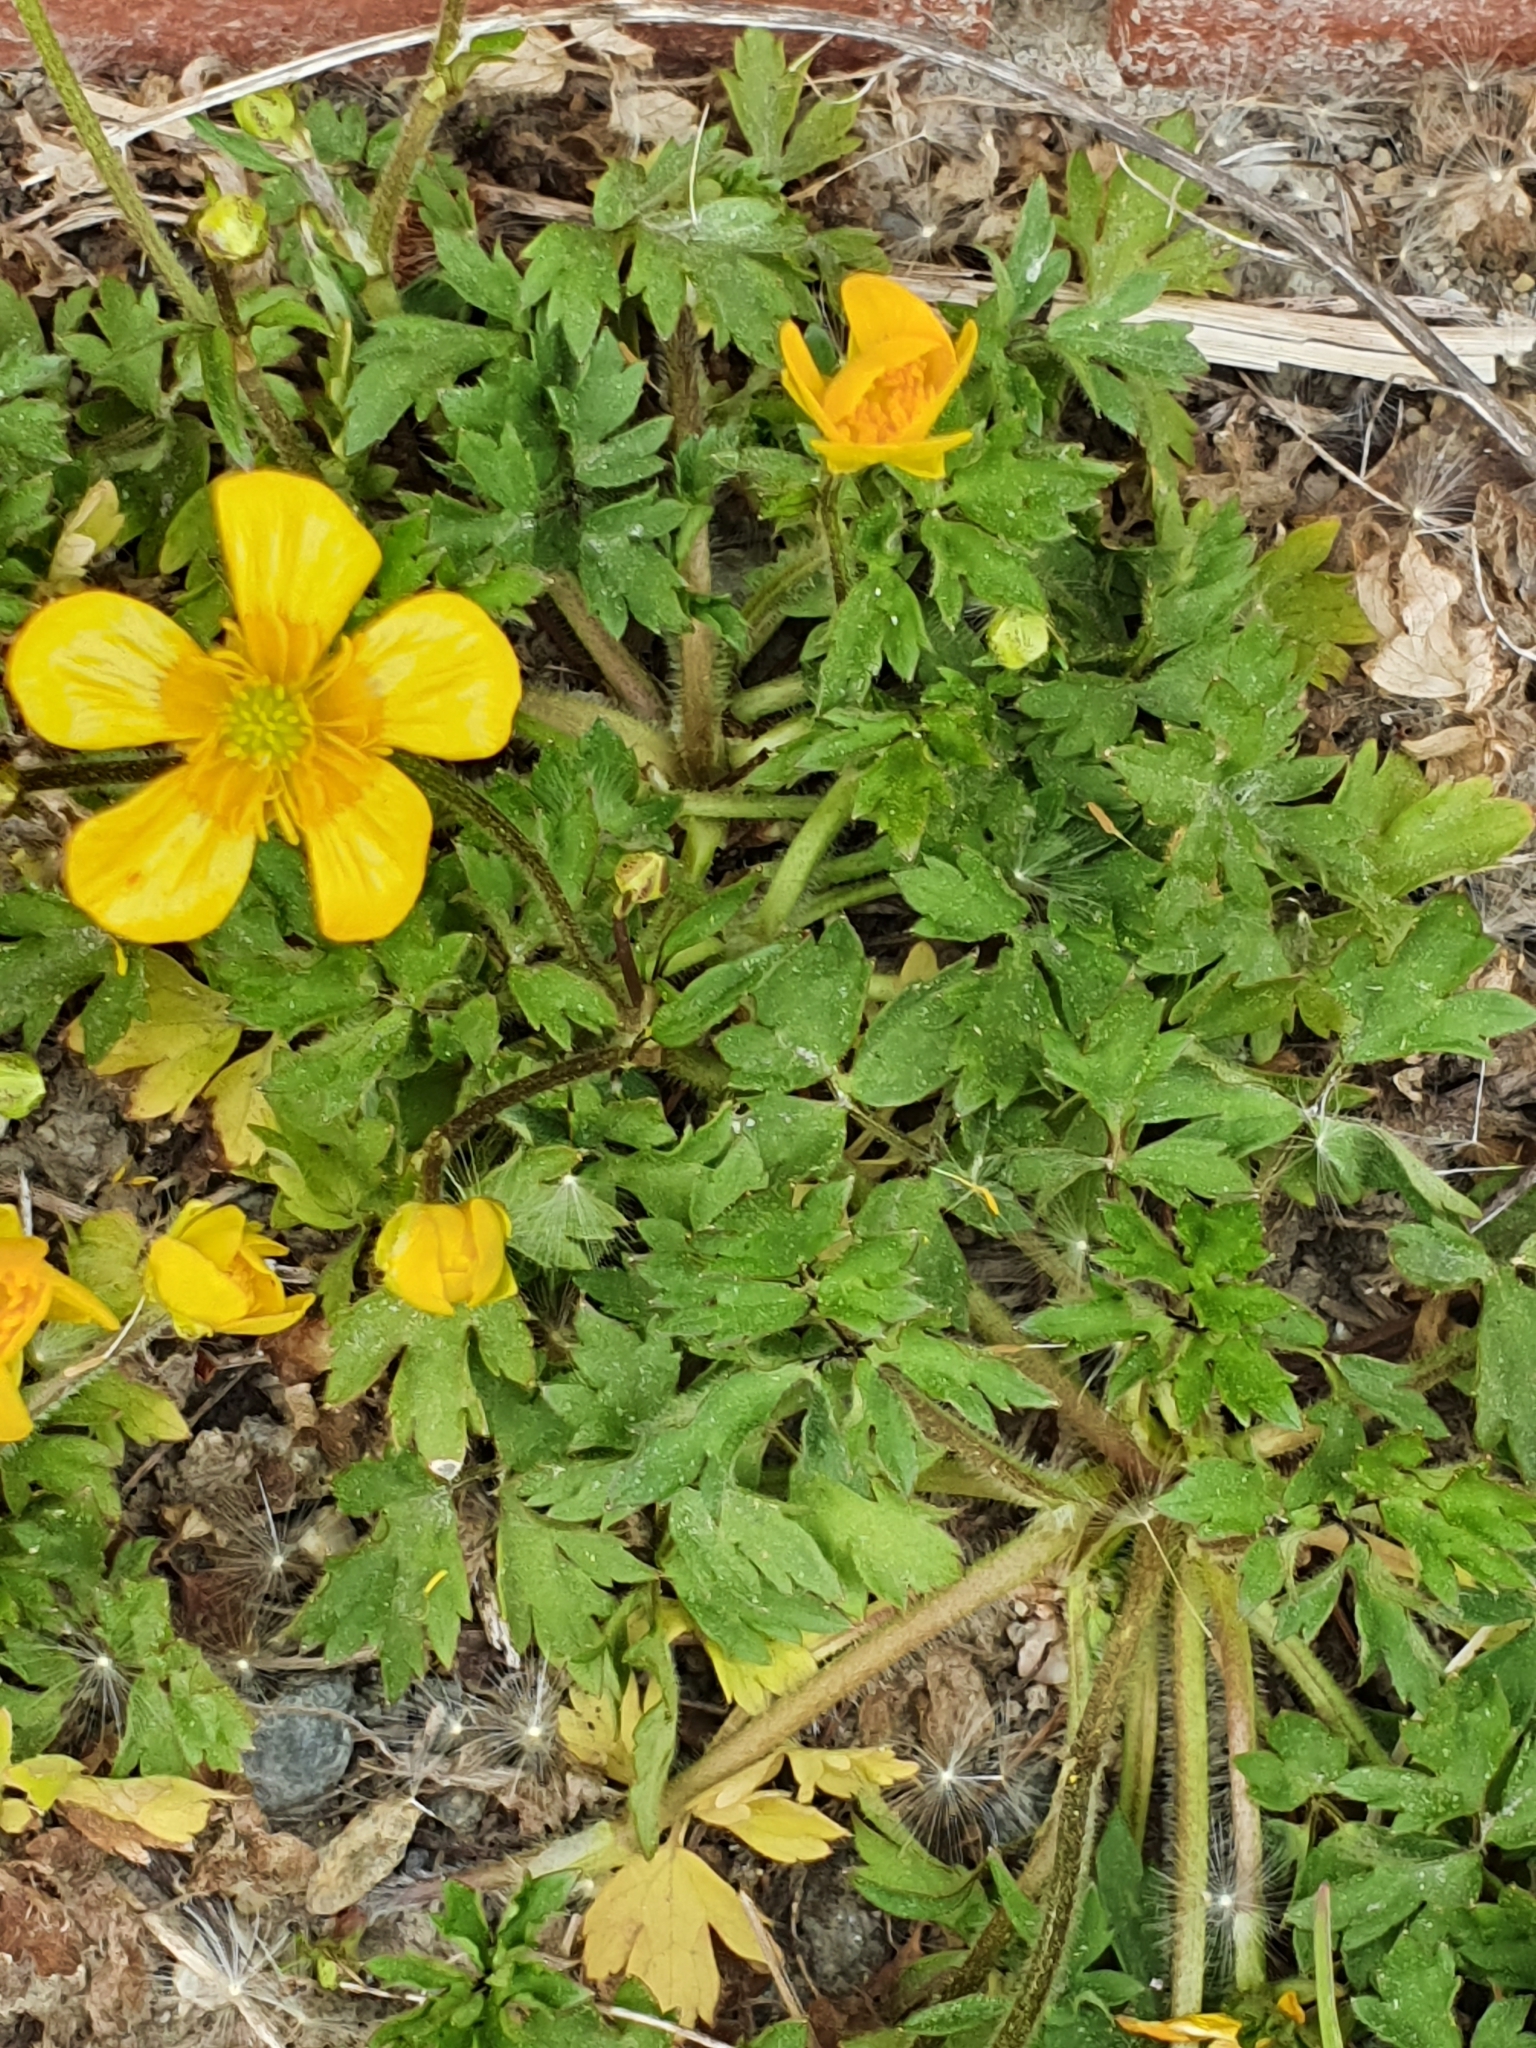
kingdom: Plantae
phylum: Tracheophyta
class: Magnoliopsida
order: Ranunculales
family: Ranunculaceae
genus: Ranunculus
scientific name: Ranunculus repens
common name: Creeping buttercup
